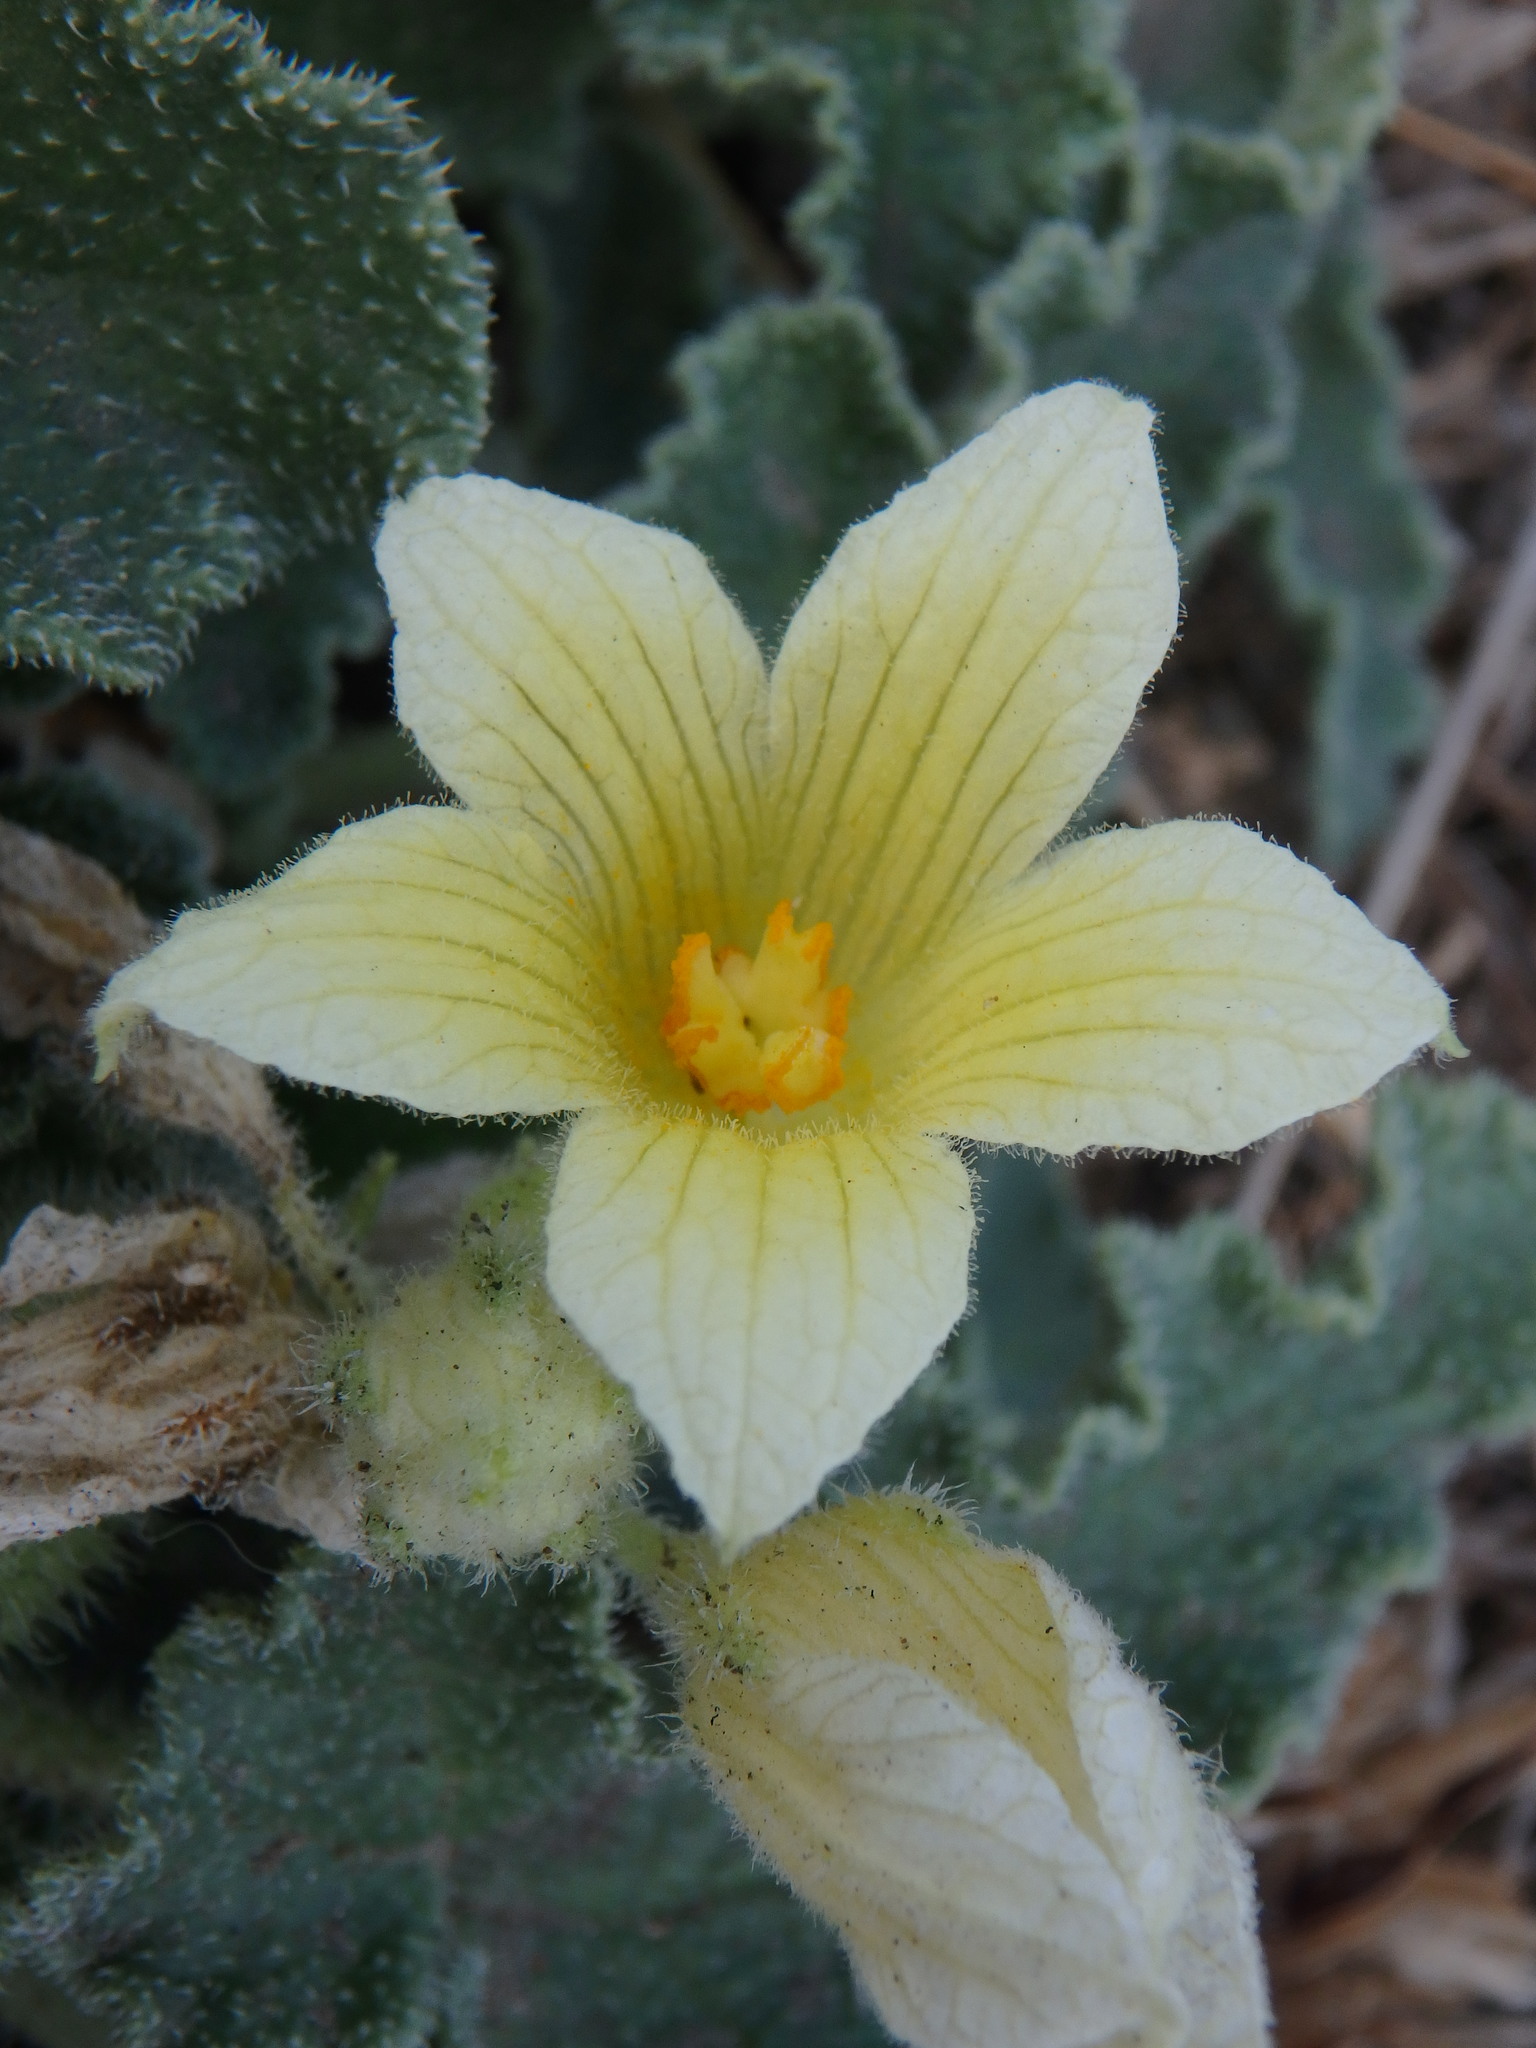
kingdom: Plantae
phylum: Tracheophyta
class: Magnoliopsida
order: Cucurbitales
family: Cucurbitaceae
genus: Ecballium
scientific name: Ecballium elaterium
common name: Squirting cucumber
